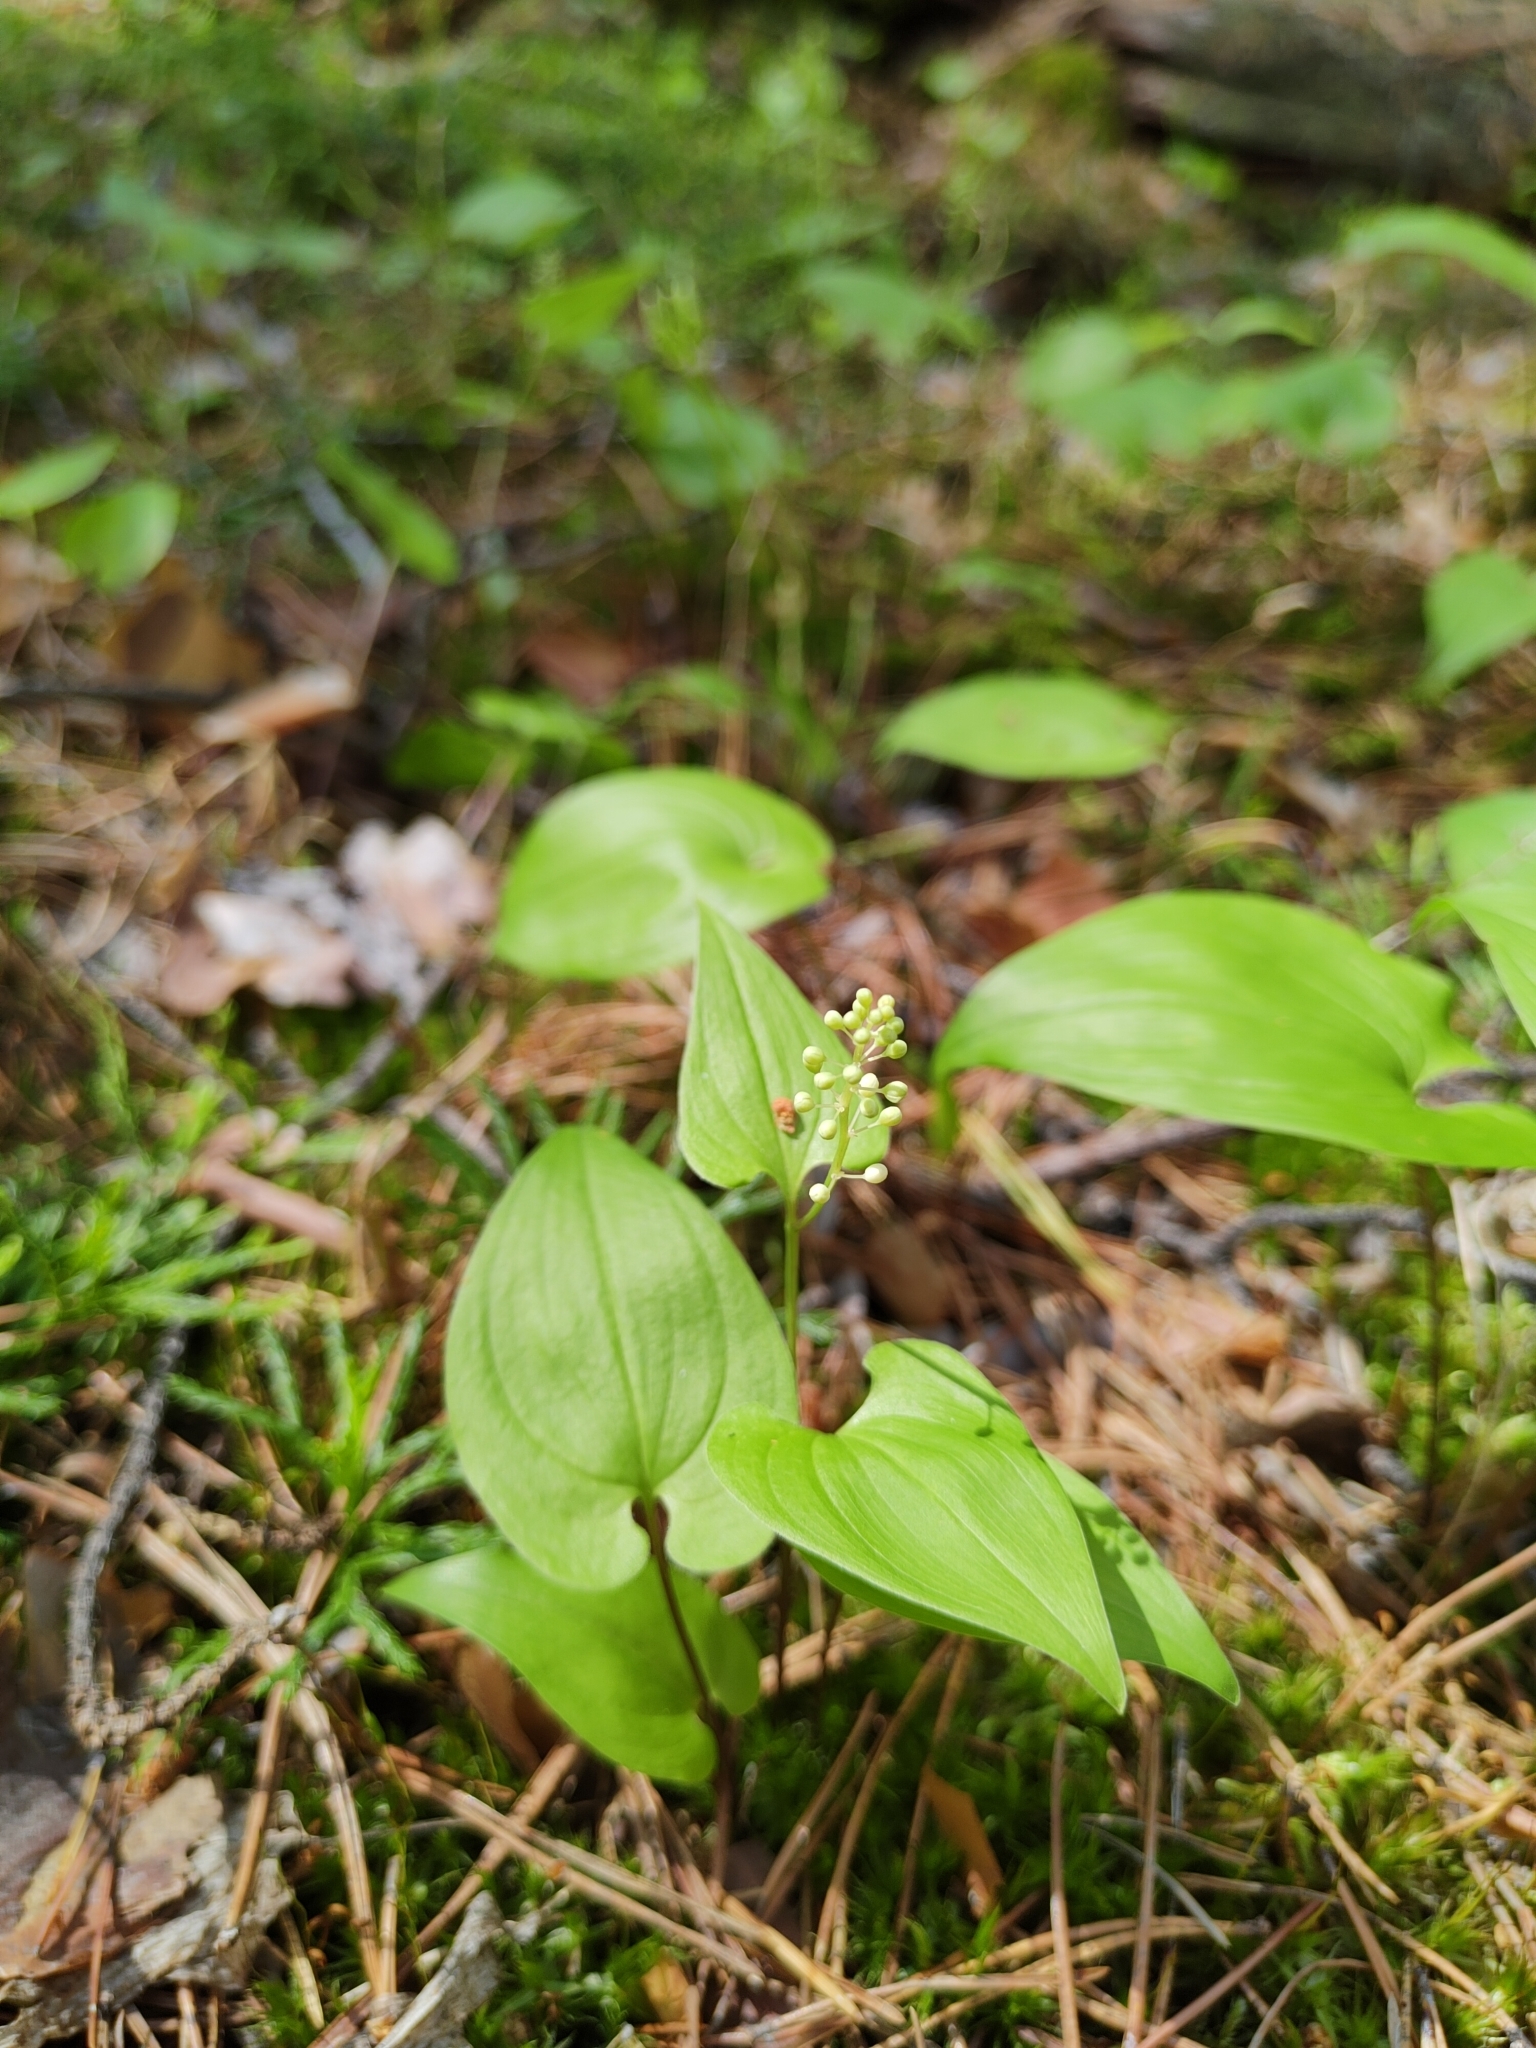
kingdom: Plantae
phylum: Tracheophyta
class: Liliopsida
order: Asparagales
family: Asparagaceae
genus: Maianthemum
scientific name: Maianthemum bifolium
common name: May lily
